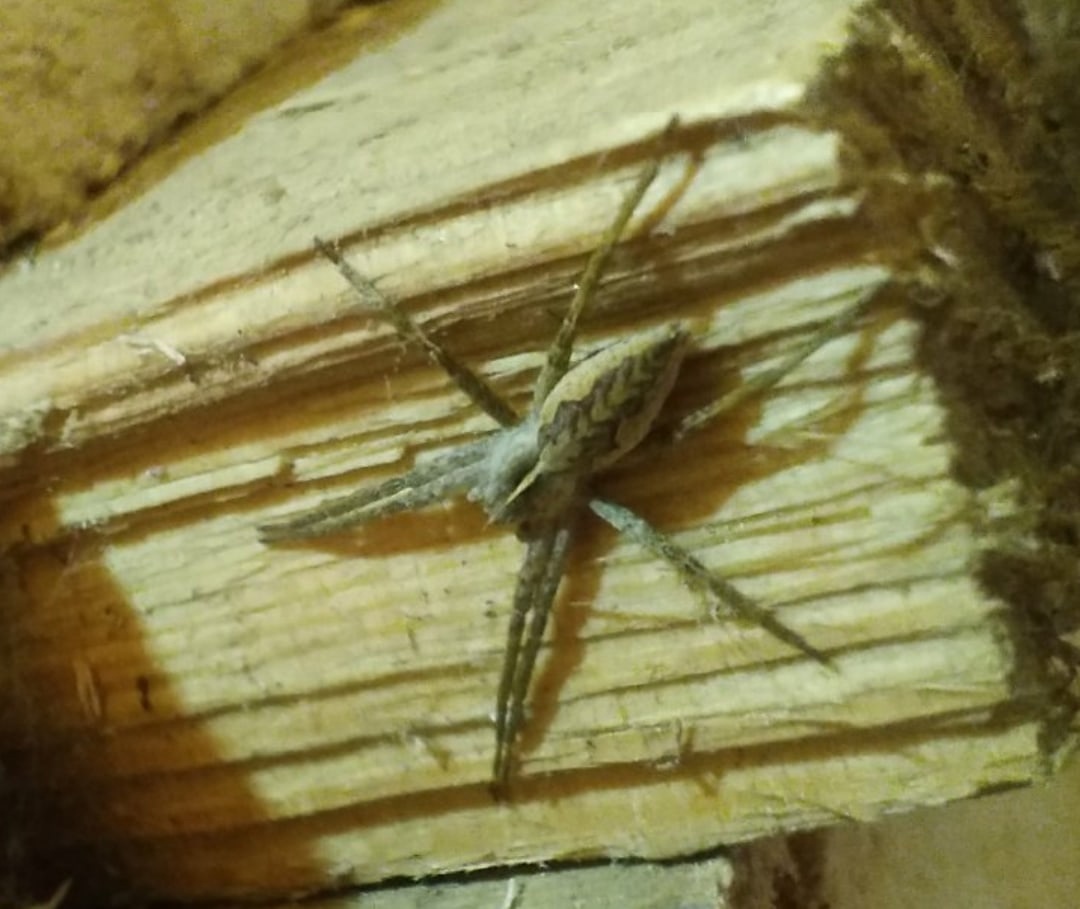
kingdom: Animalia
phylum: Arthropoda
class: Arachnida
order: Araneae
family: Pisauridae
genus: Pisaura
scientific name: Pisaura mirabilis
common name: Tent spider
